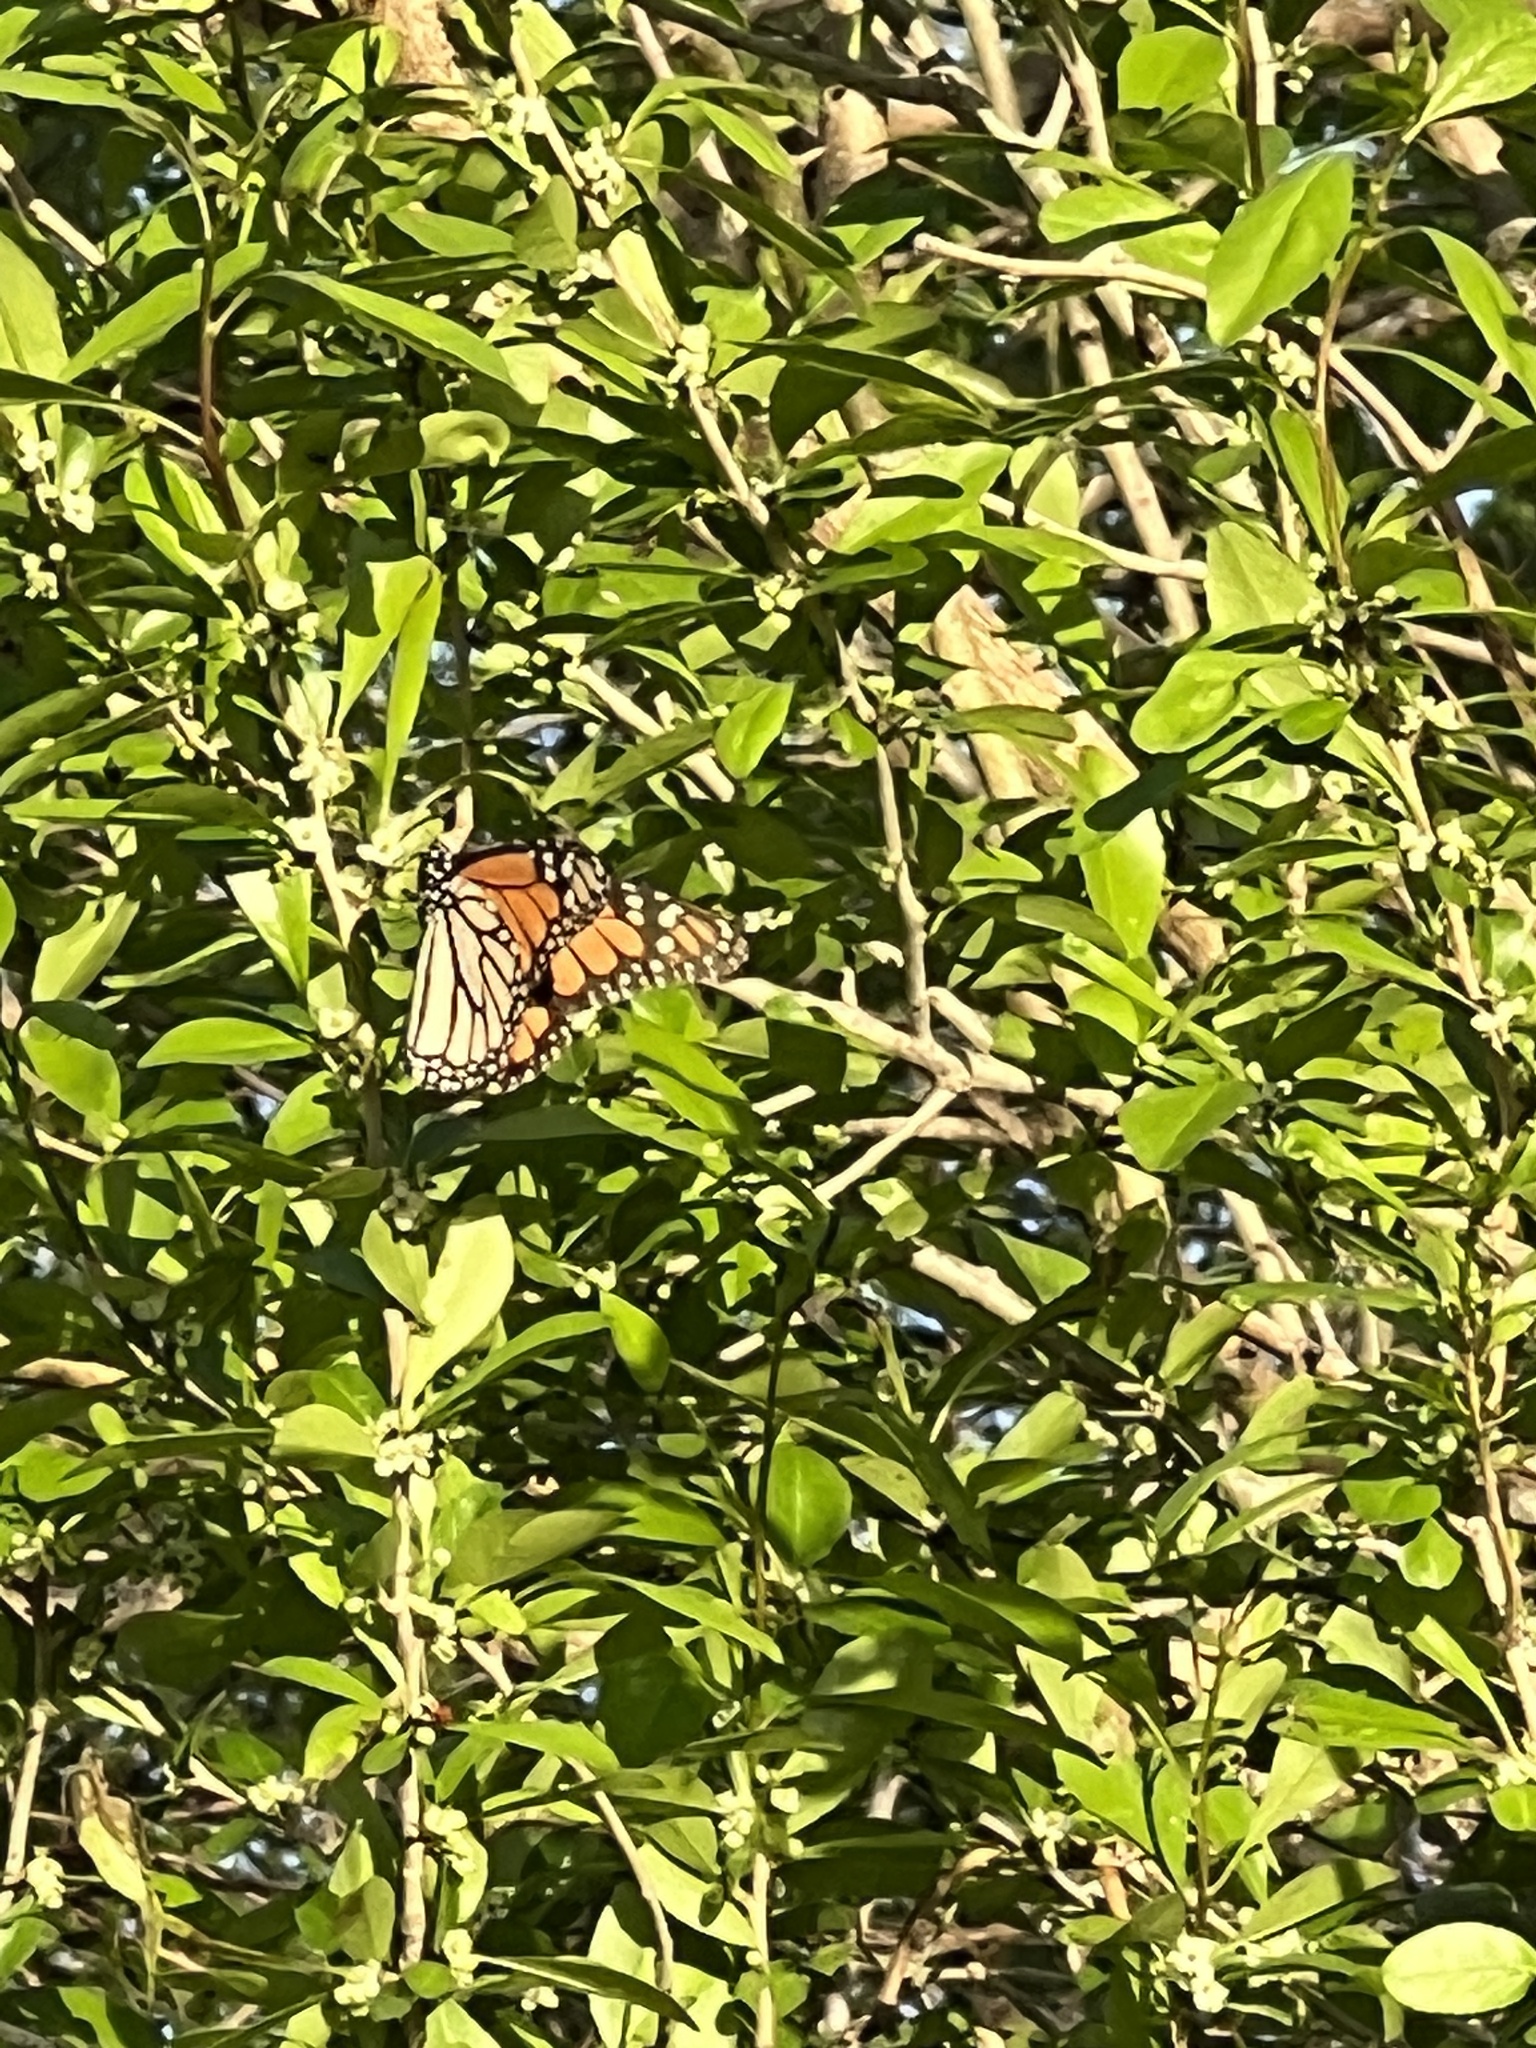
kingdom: Animalia
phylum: Arthropoda
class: Insecta
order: Lepidoptera
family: Nymphalidae
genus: Danaus
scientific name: Danaus plexippus
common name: Monarch
